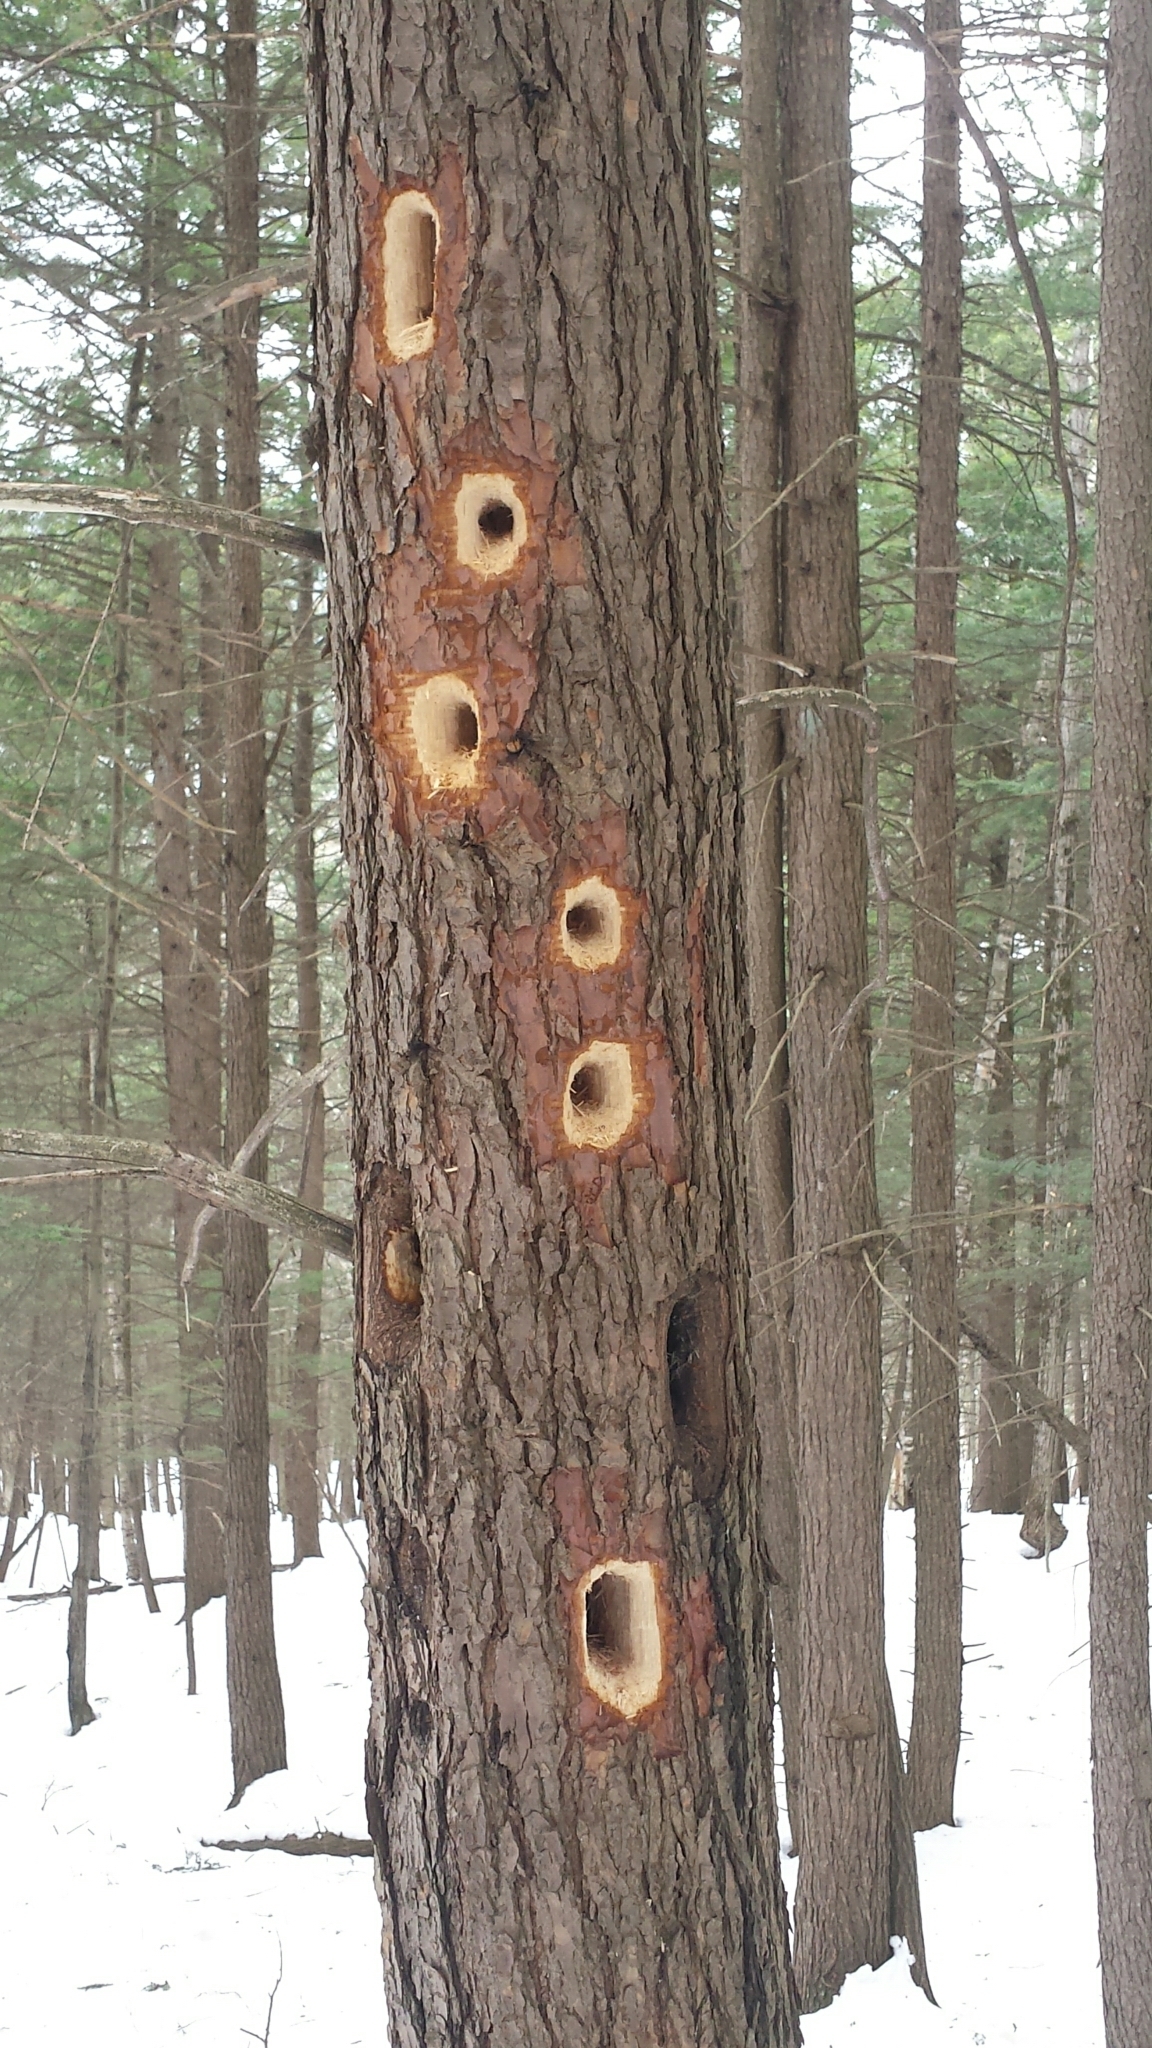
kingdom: Animalia
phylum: Chordata
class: Aves
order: Piciformes
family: Picidae
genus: Dryocopus
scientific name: Dryocopus pileatus
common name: Pileated woodpecker
